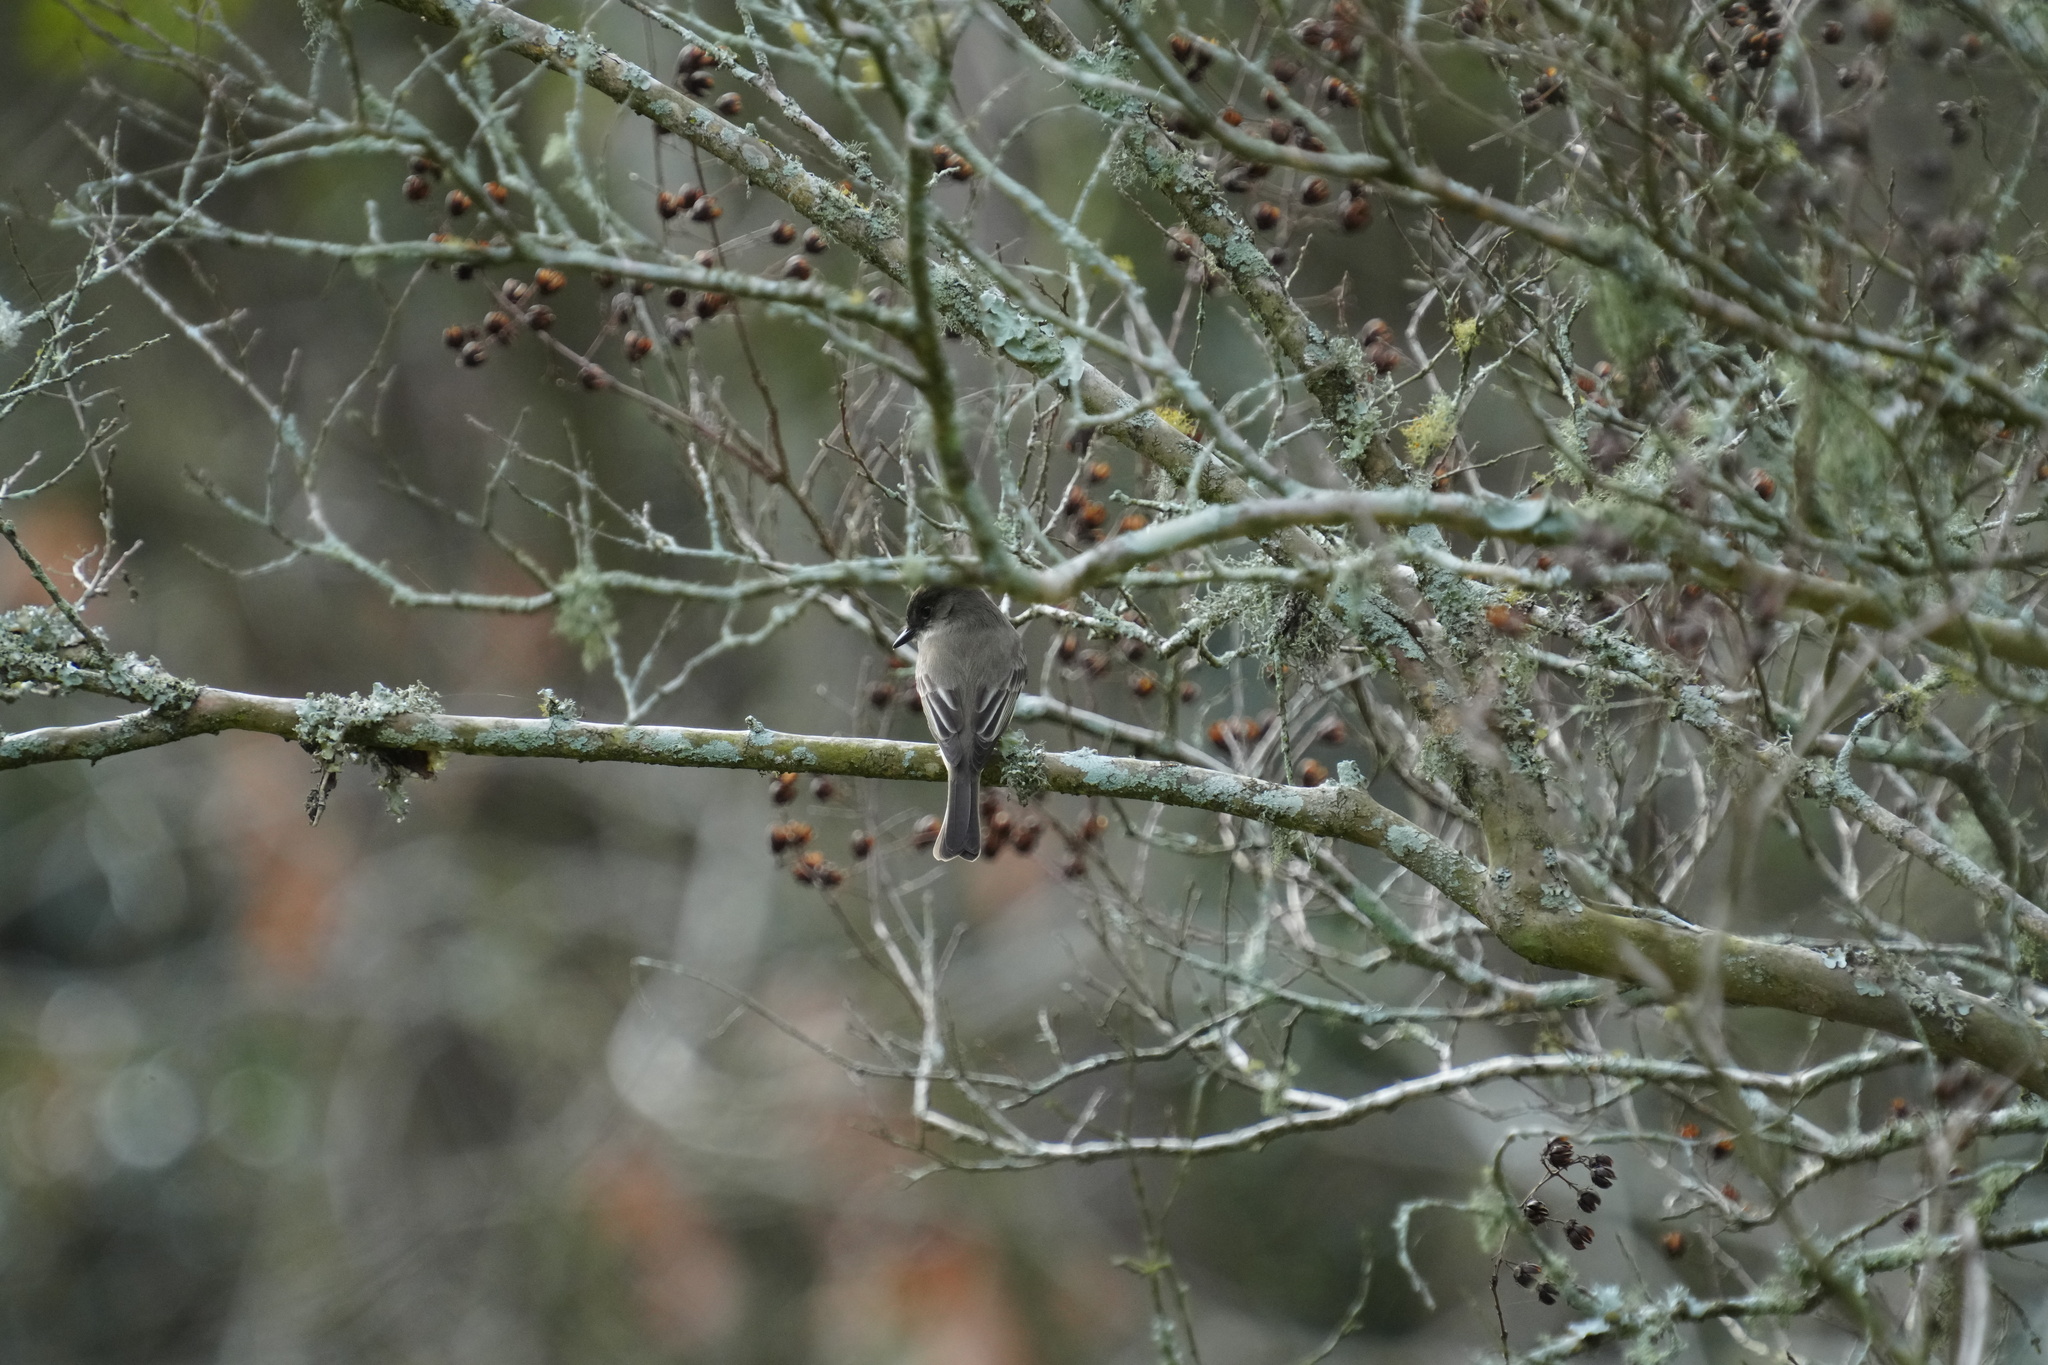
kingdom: Animalia
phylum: Chordata
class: Aves
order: Passeriformes
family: Tyrannidae
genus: Sayornis
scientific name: Sayornis phoebe
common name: Eastern phoebe
